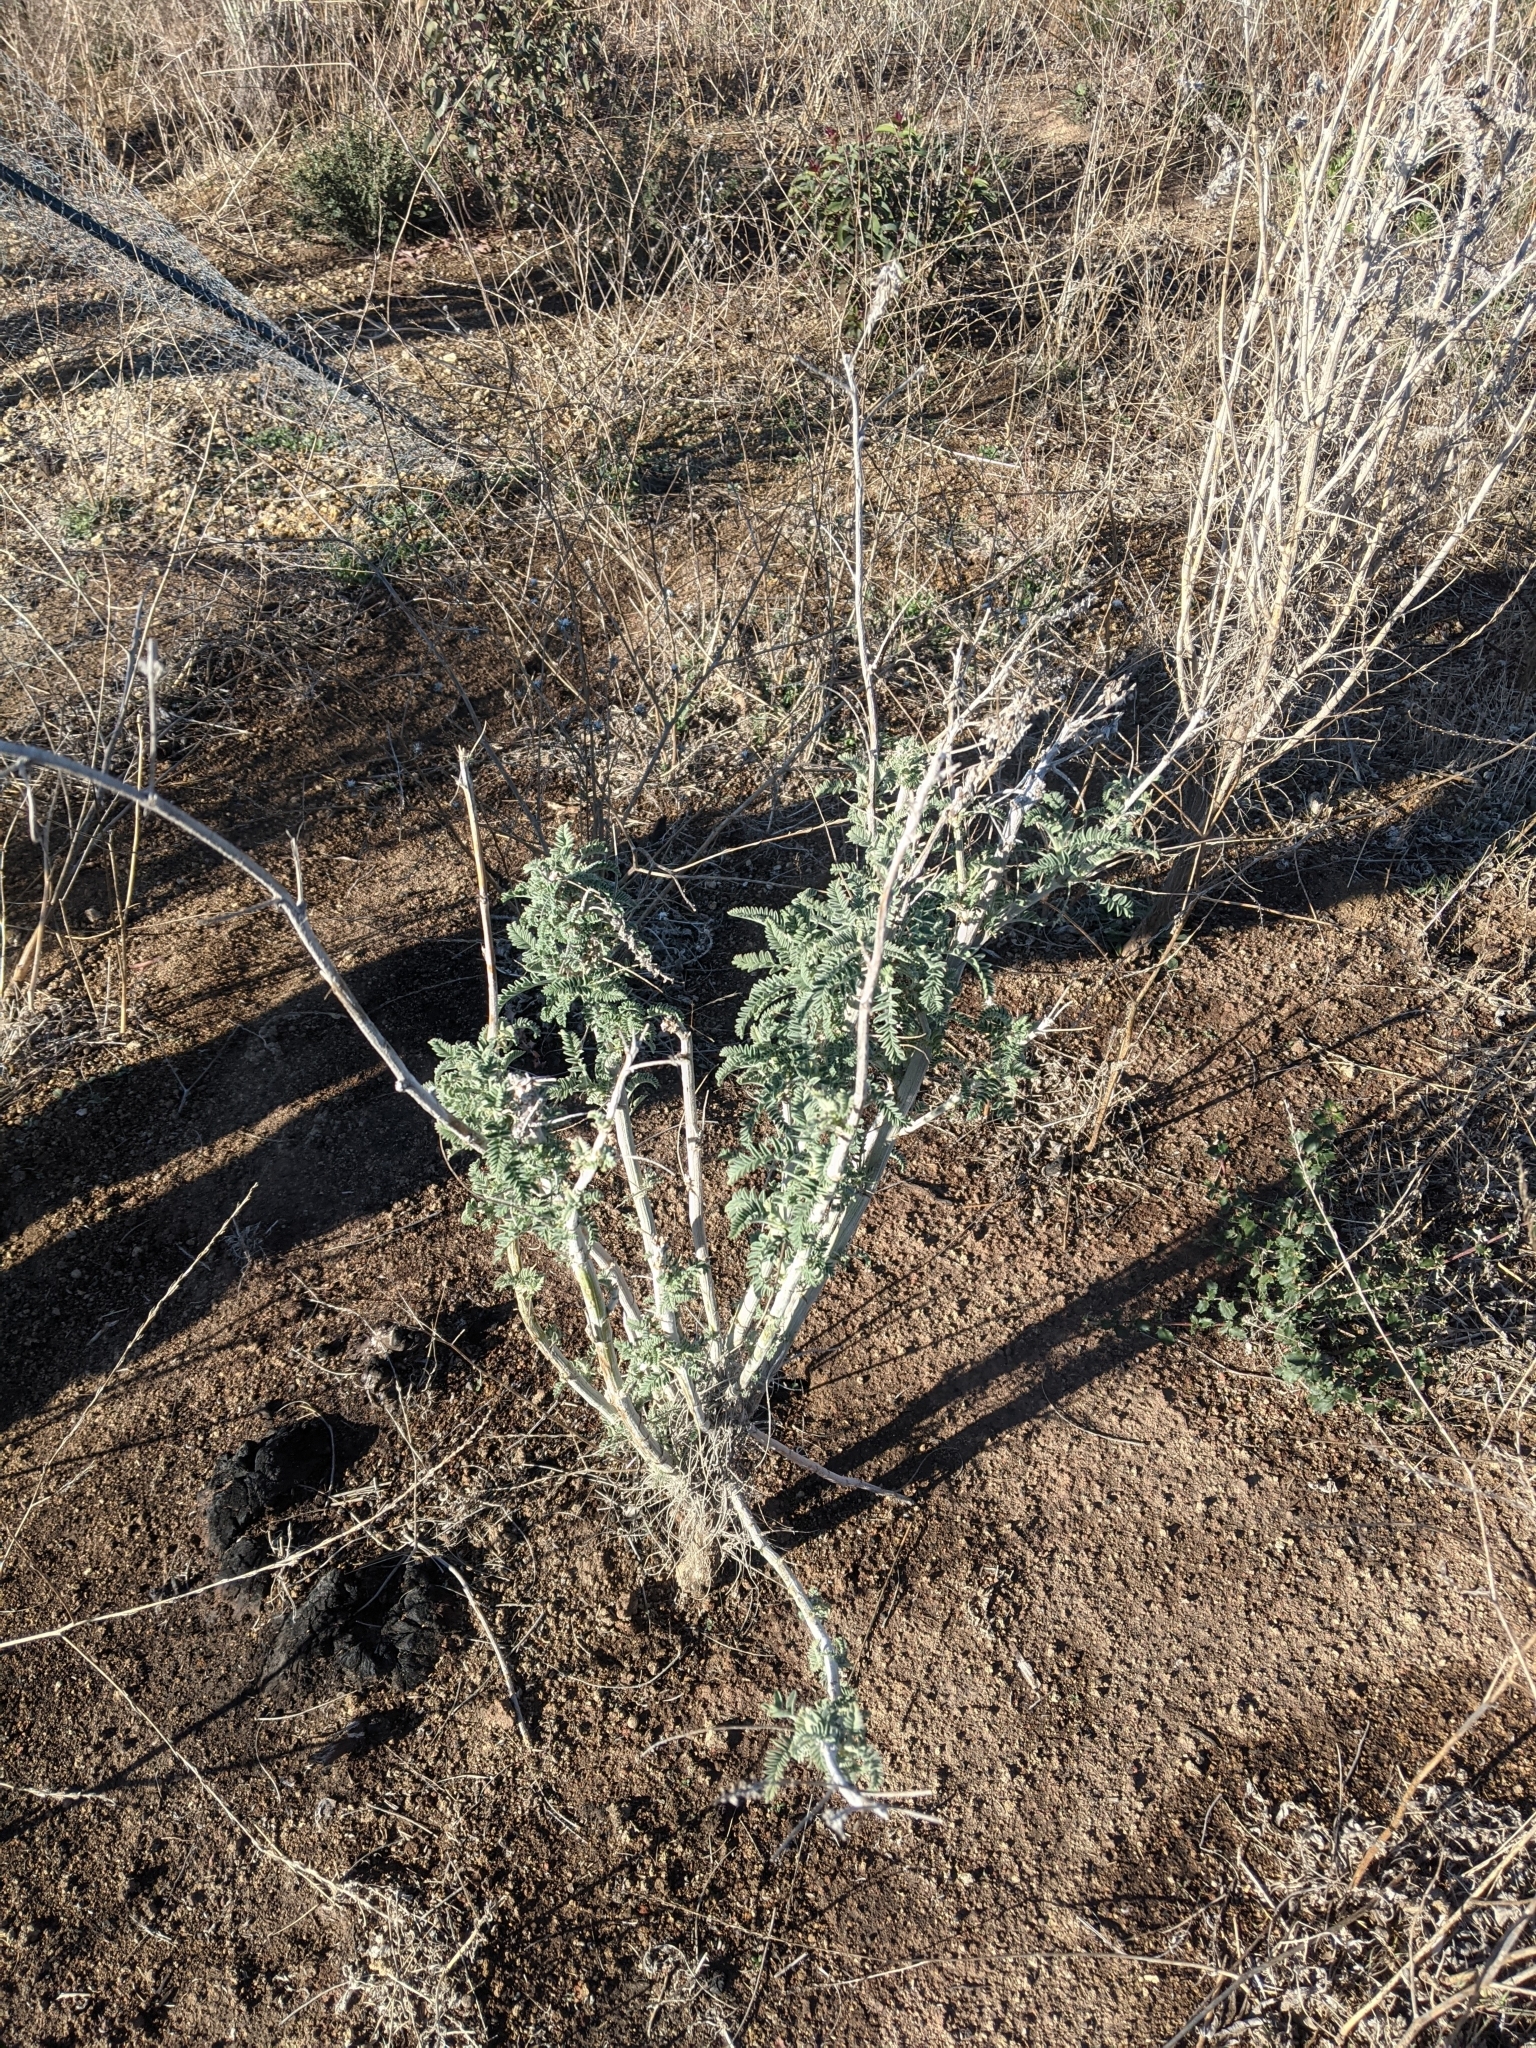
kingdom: Plantae
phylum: Tracheophyta
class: Magnoliopsida
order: Fabales
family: Fabaceae
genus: Astragalus
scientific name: Astragalus brauntonii
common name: Braunton's milk-vetch
